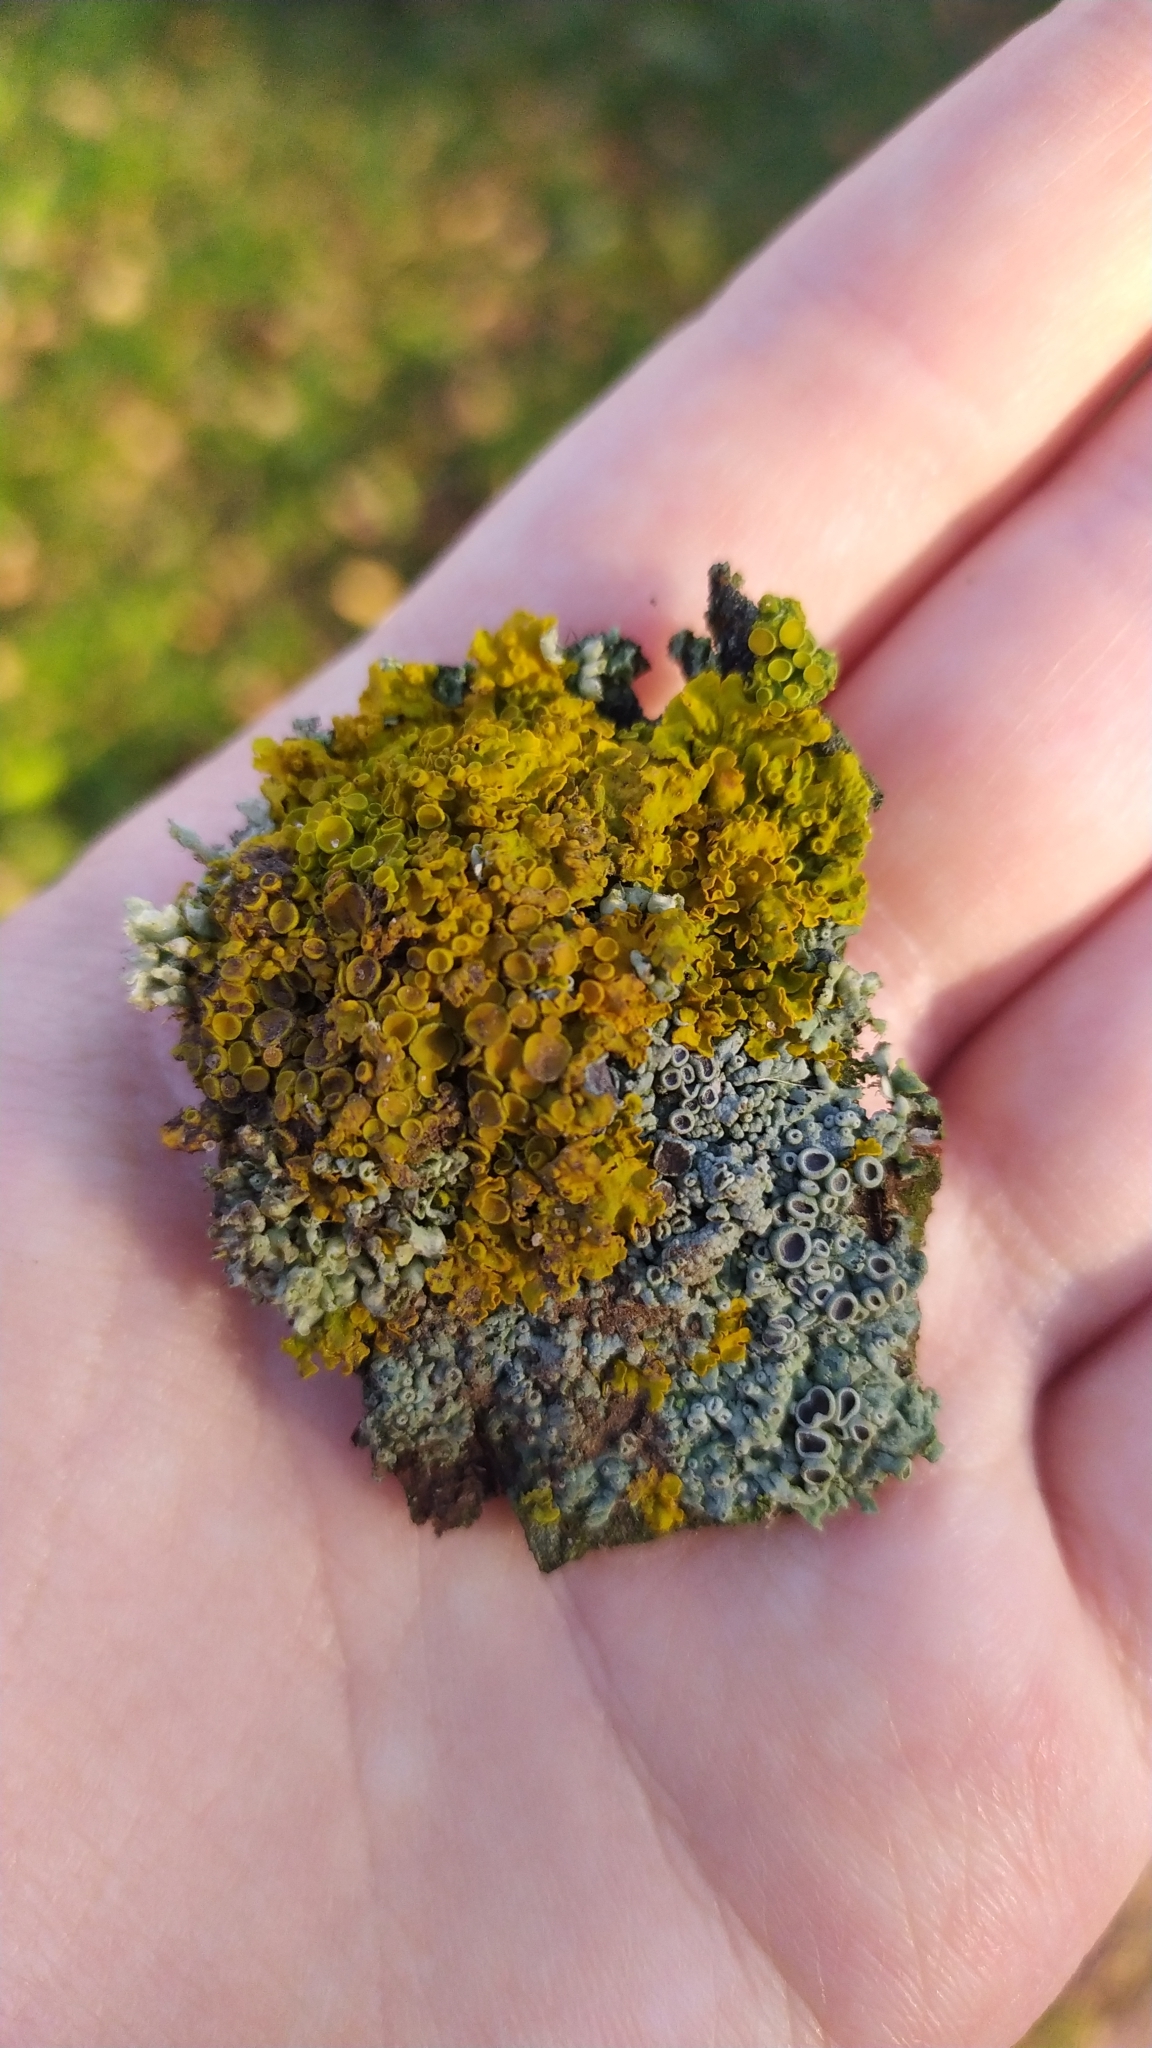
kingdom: Fungi
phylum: Ascomycota
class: Lecanoromycetes
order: Teloschistales
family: Teloschistaceae
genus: Xanthoria
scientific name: Xanthoria parietina
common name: Common orange lichen
